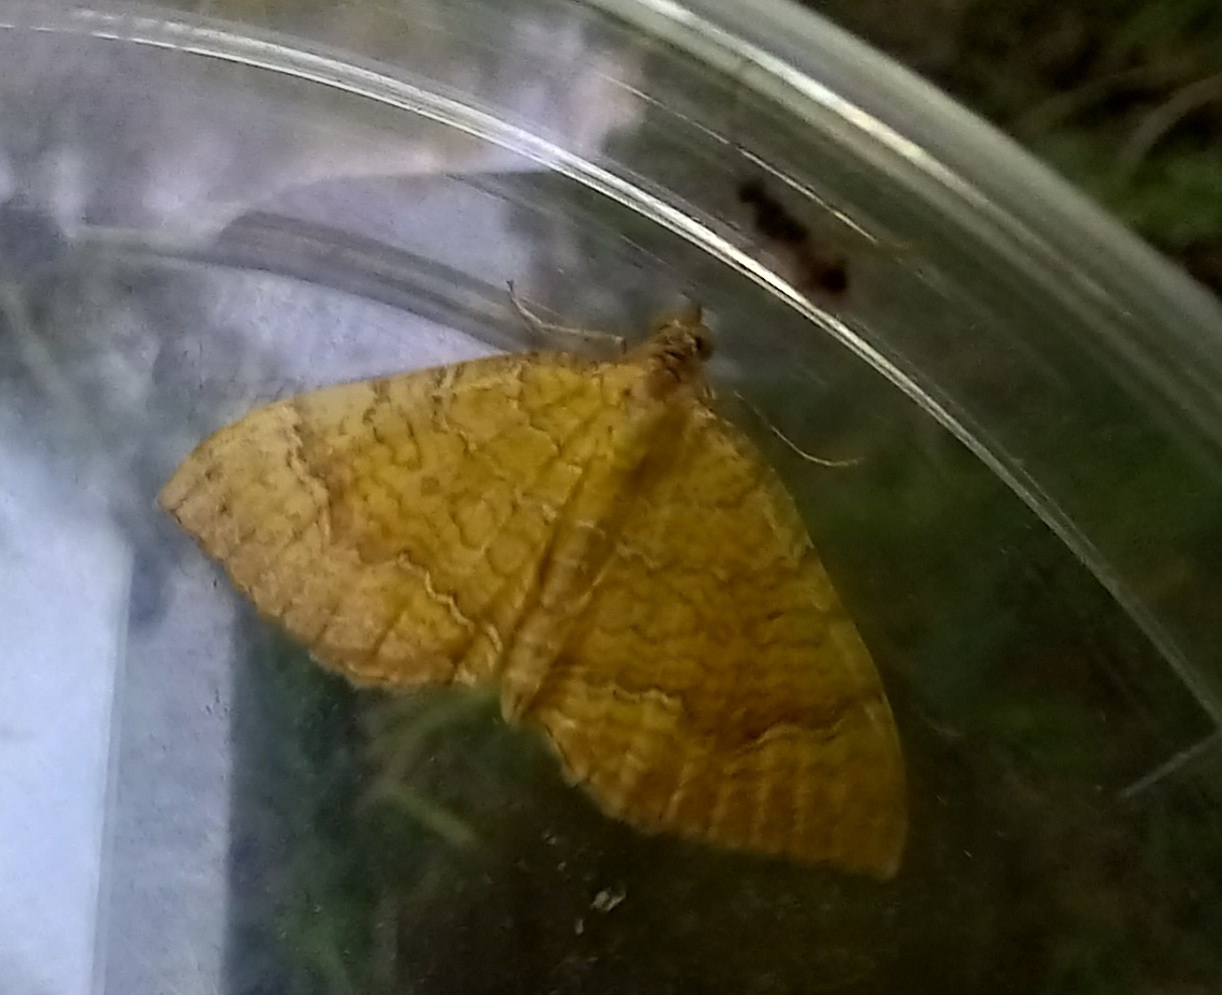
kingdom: Animalia
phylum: Arthropoda
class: Insecta
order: Lepidoptera
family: Geometridae
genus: Camptogramma
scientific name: Camptogramma bilineata
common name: Yellow shell
